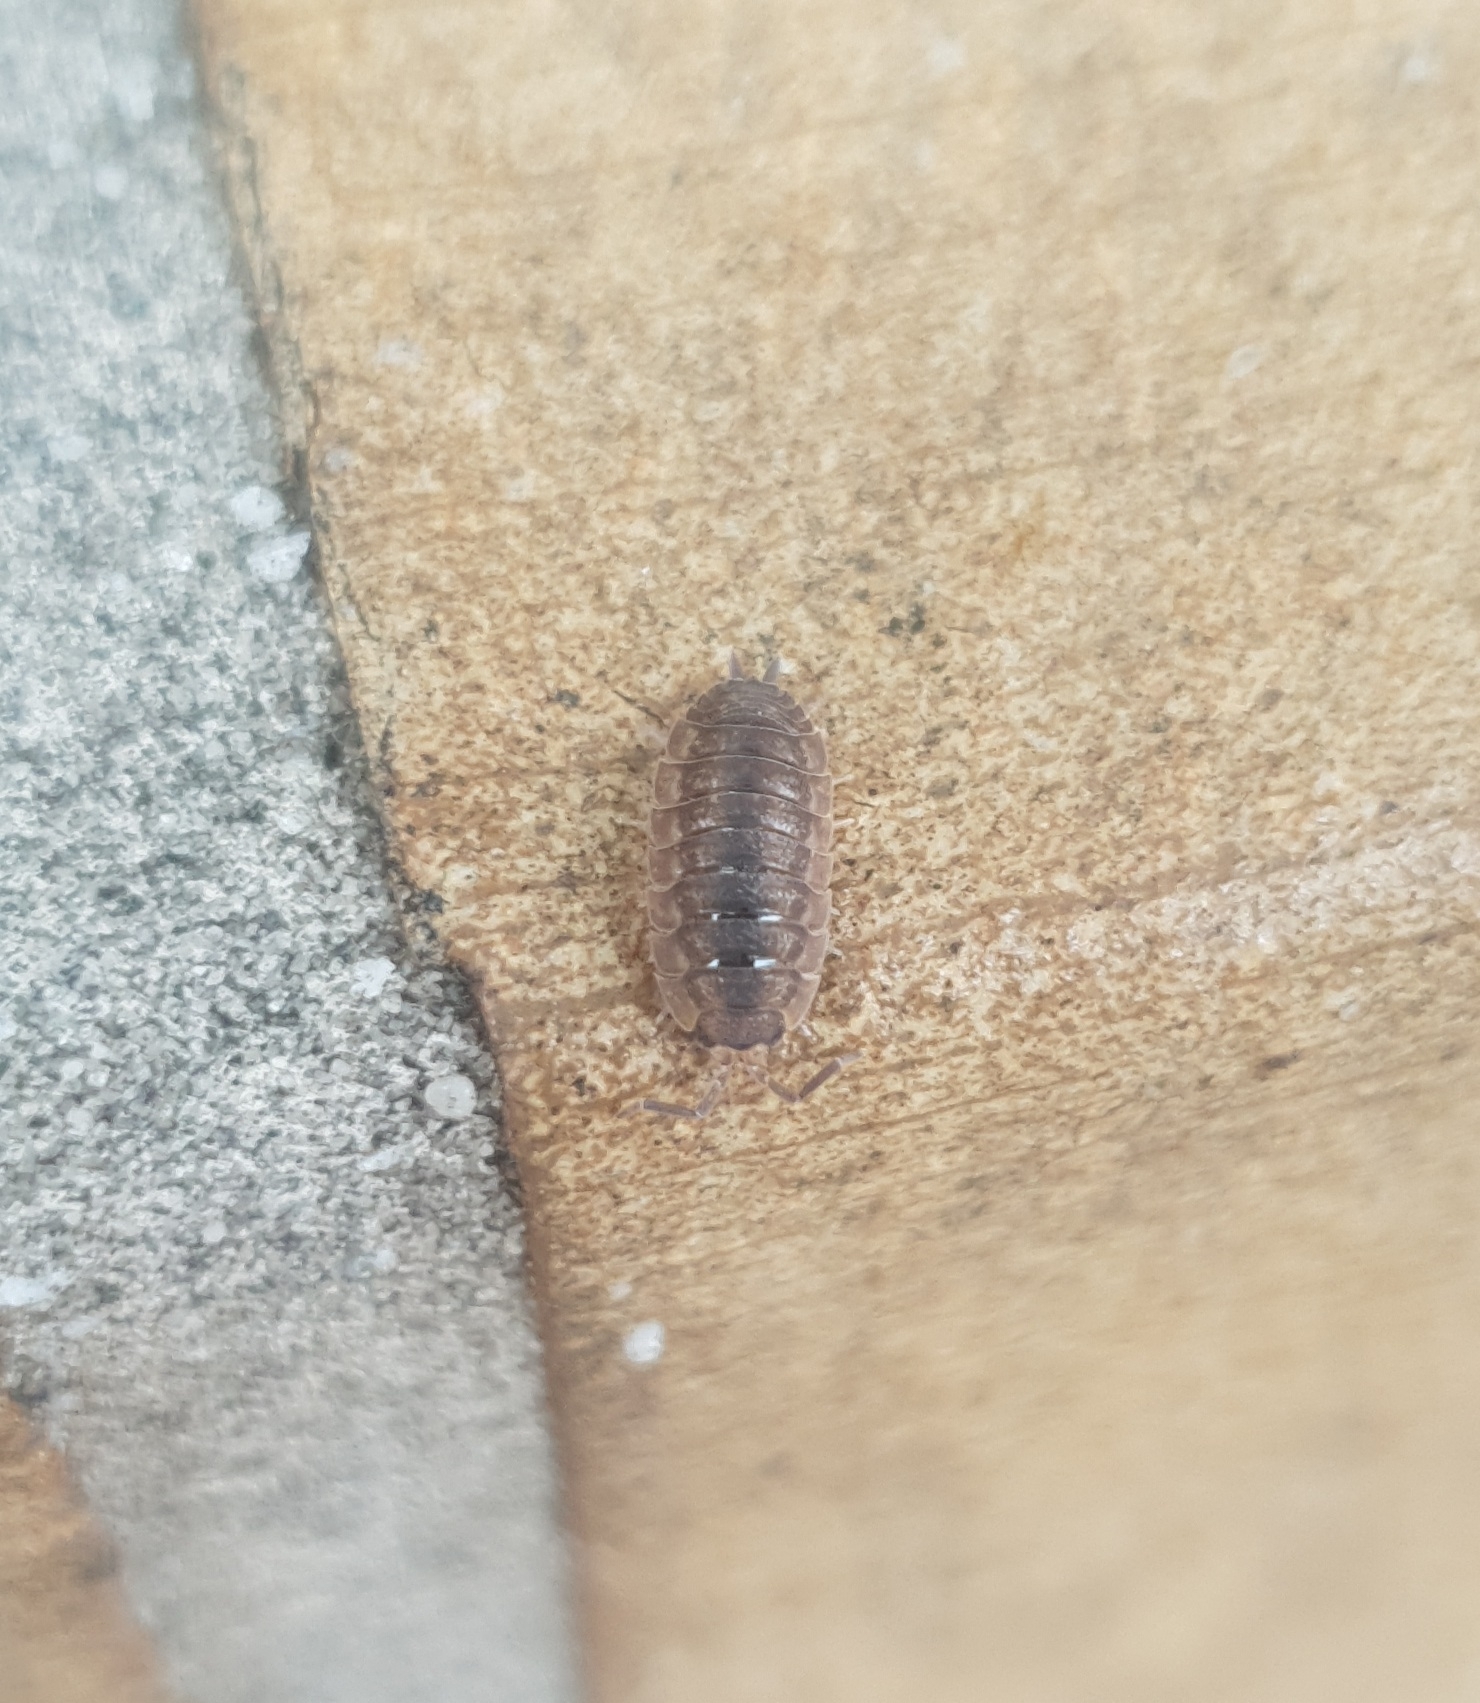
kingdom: Animalia
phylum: Arthropoda
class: Malacostraca
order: Isopoda
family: Porcellionidae
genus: Porcellio
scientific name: Porcellio scaber
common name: Common rough woodlouse
